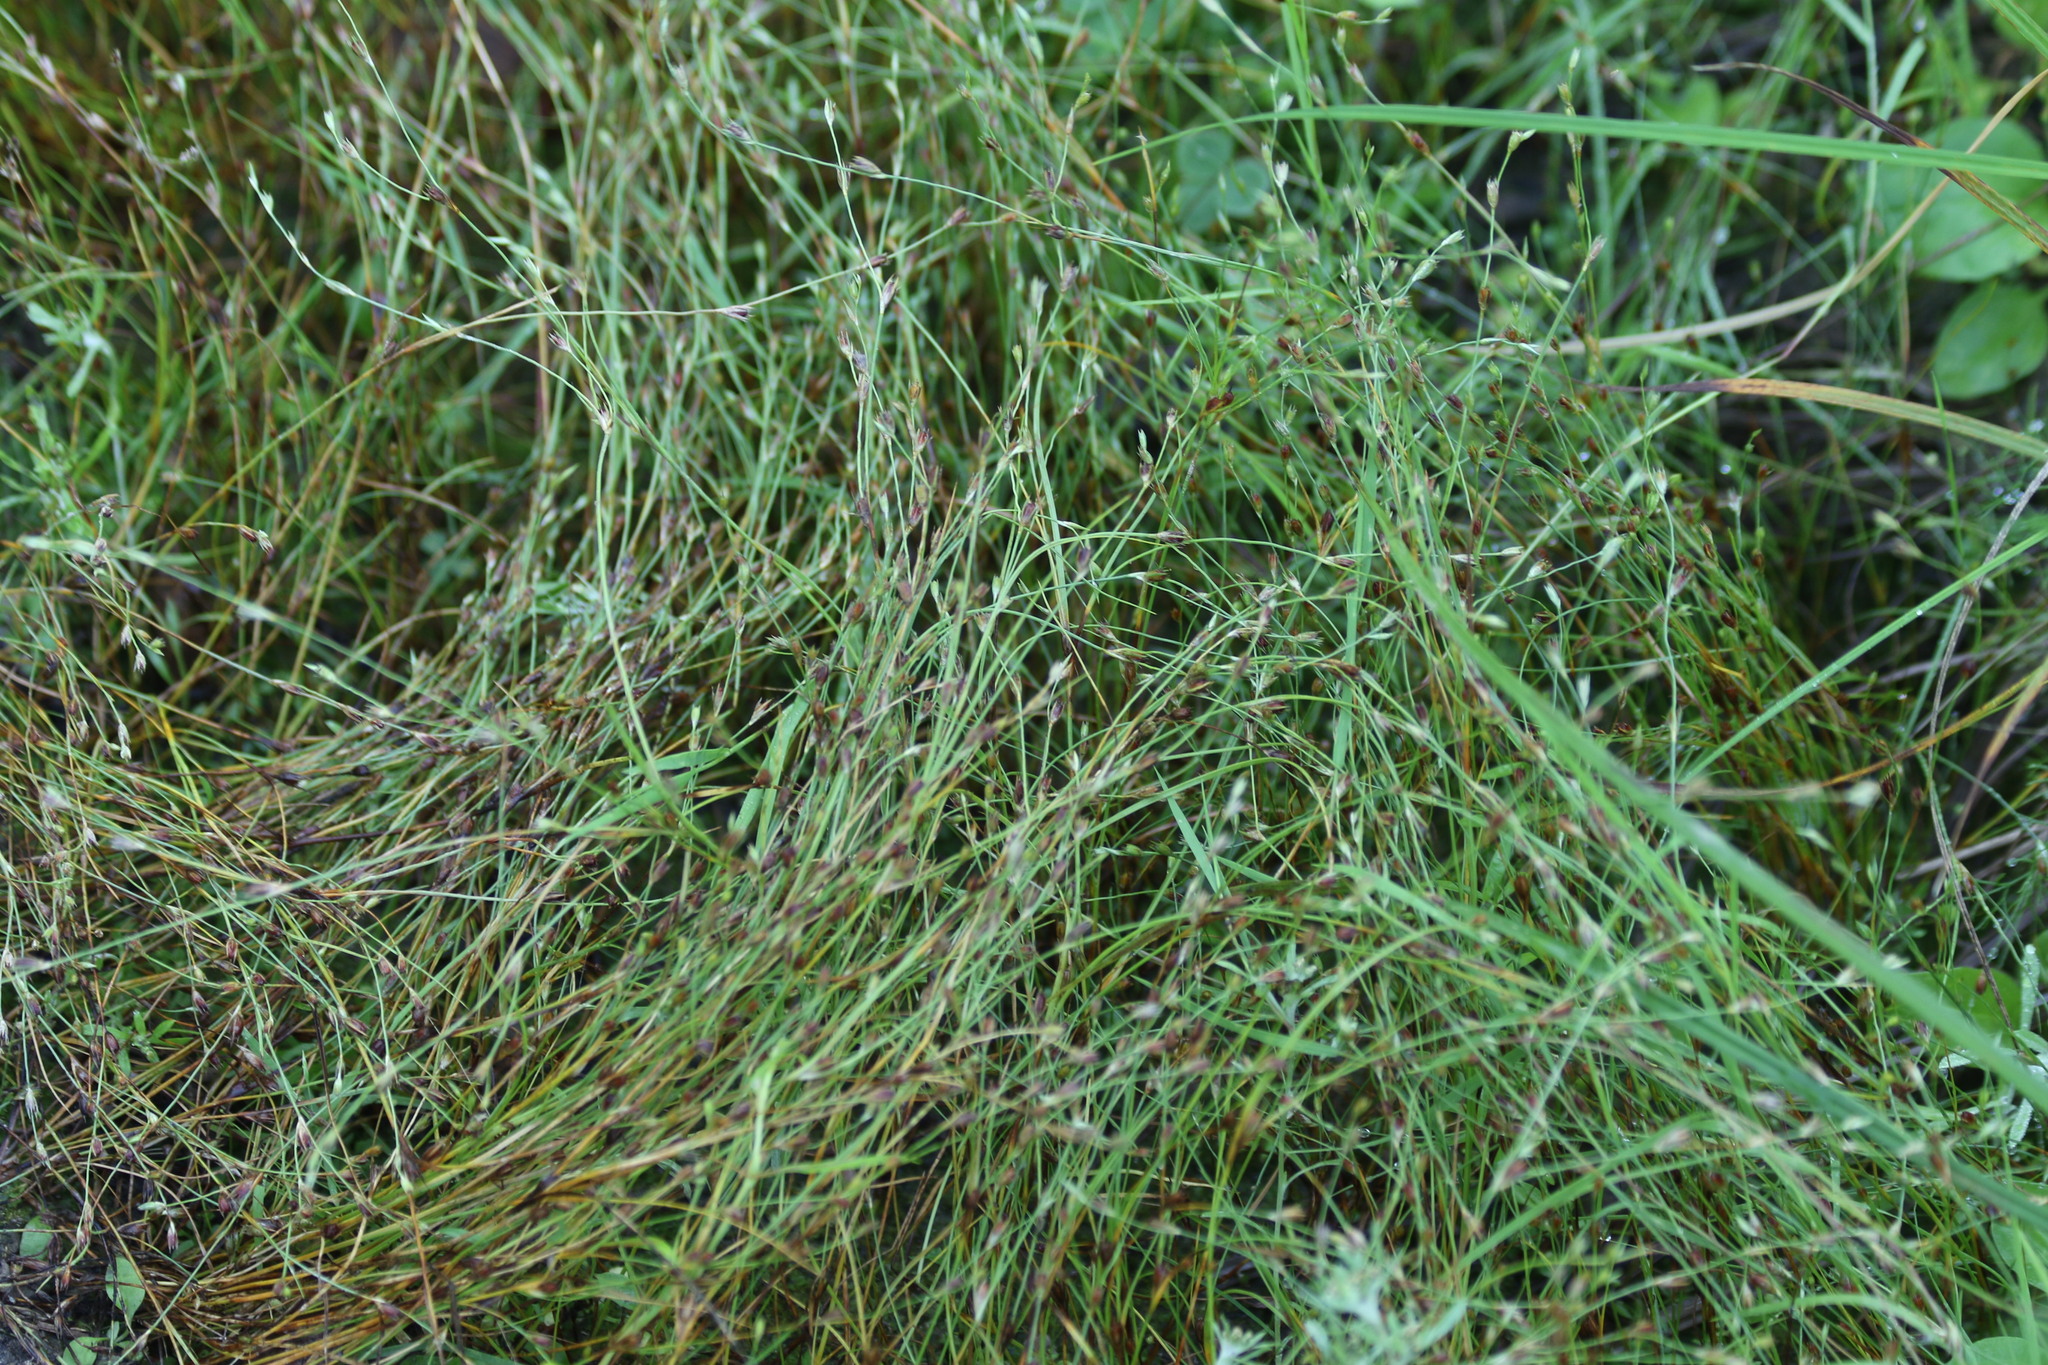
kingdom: Plantae
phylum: Tracheophyta
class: Liliopsida
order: Poales
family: Juncaceae
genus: Juncus
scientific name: Juncus bufonius
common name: Toad rush
